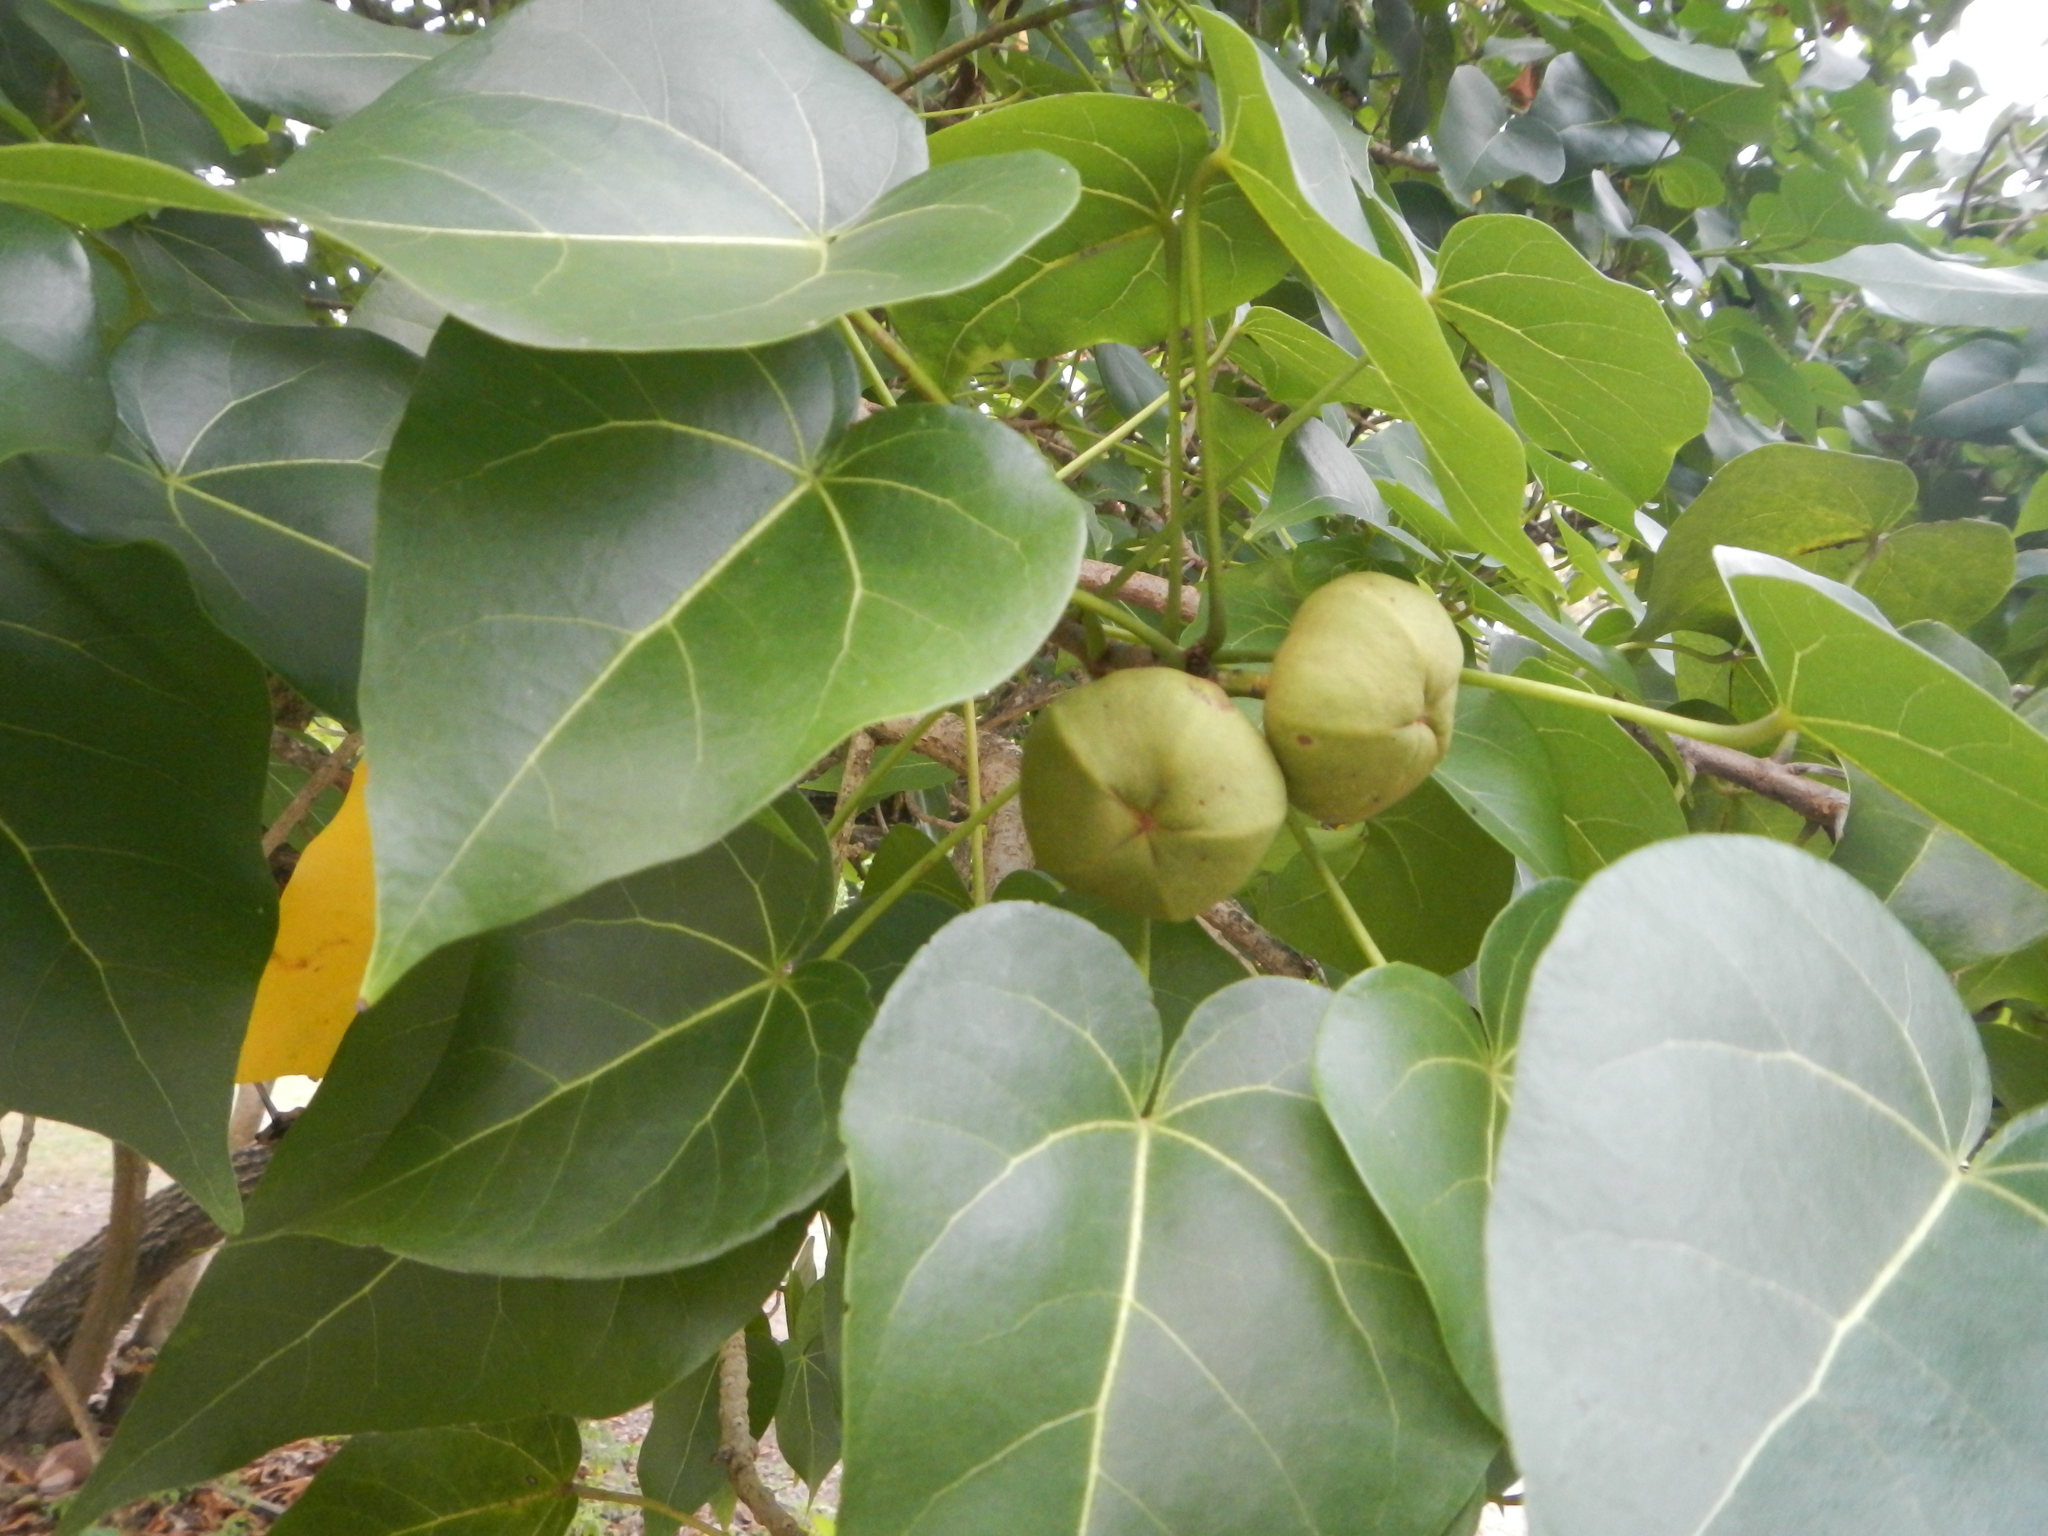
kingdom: Plantae
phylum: Tracheophyta
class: Magnoliopsida
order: Malvales
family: Malvaceae
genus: Thespesia
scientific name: Thespesia populnea
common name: Seaside mahoe
